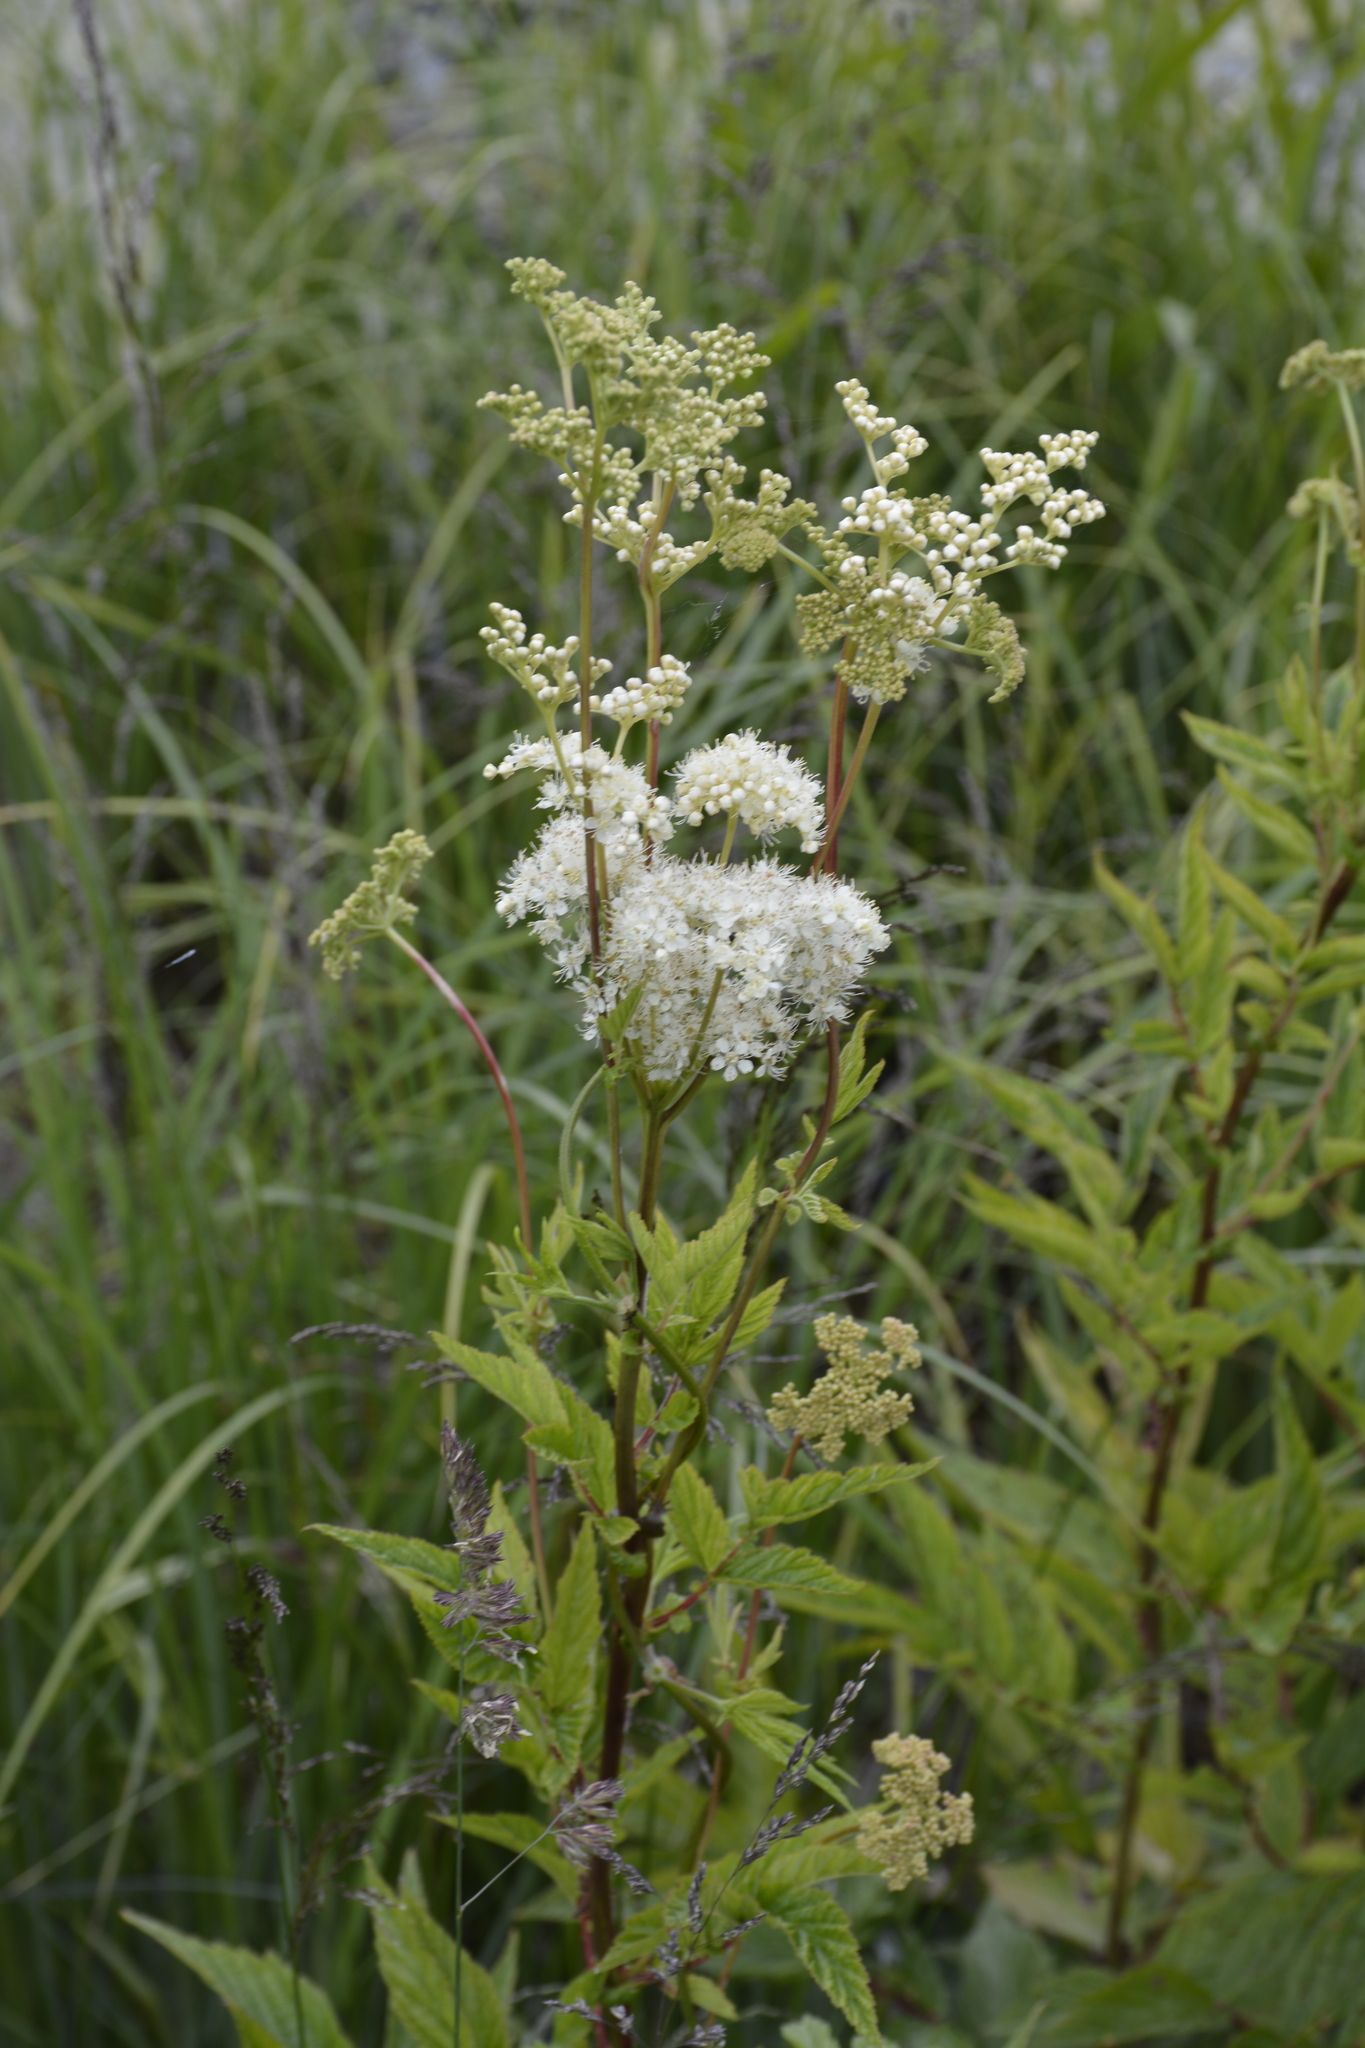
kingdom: Plantae
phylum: Tracheophyta
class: Magnoliopsida
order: Rosales
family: Rosaceae
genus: Filipendula
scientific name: Filipendula ulmaria
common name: Meadowsweet
